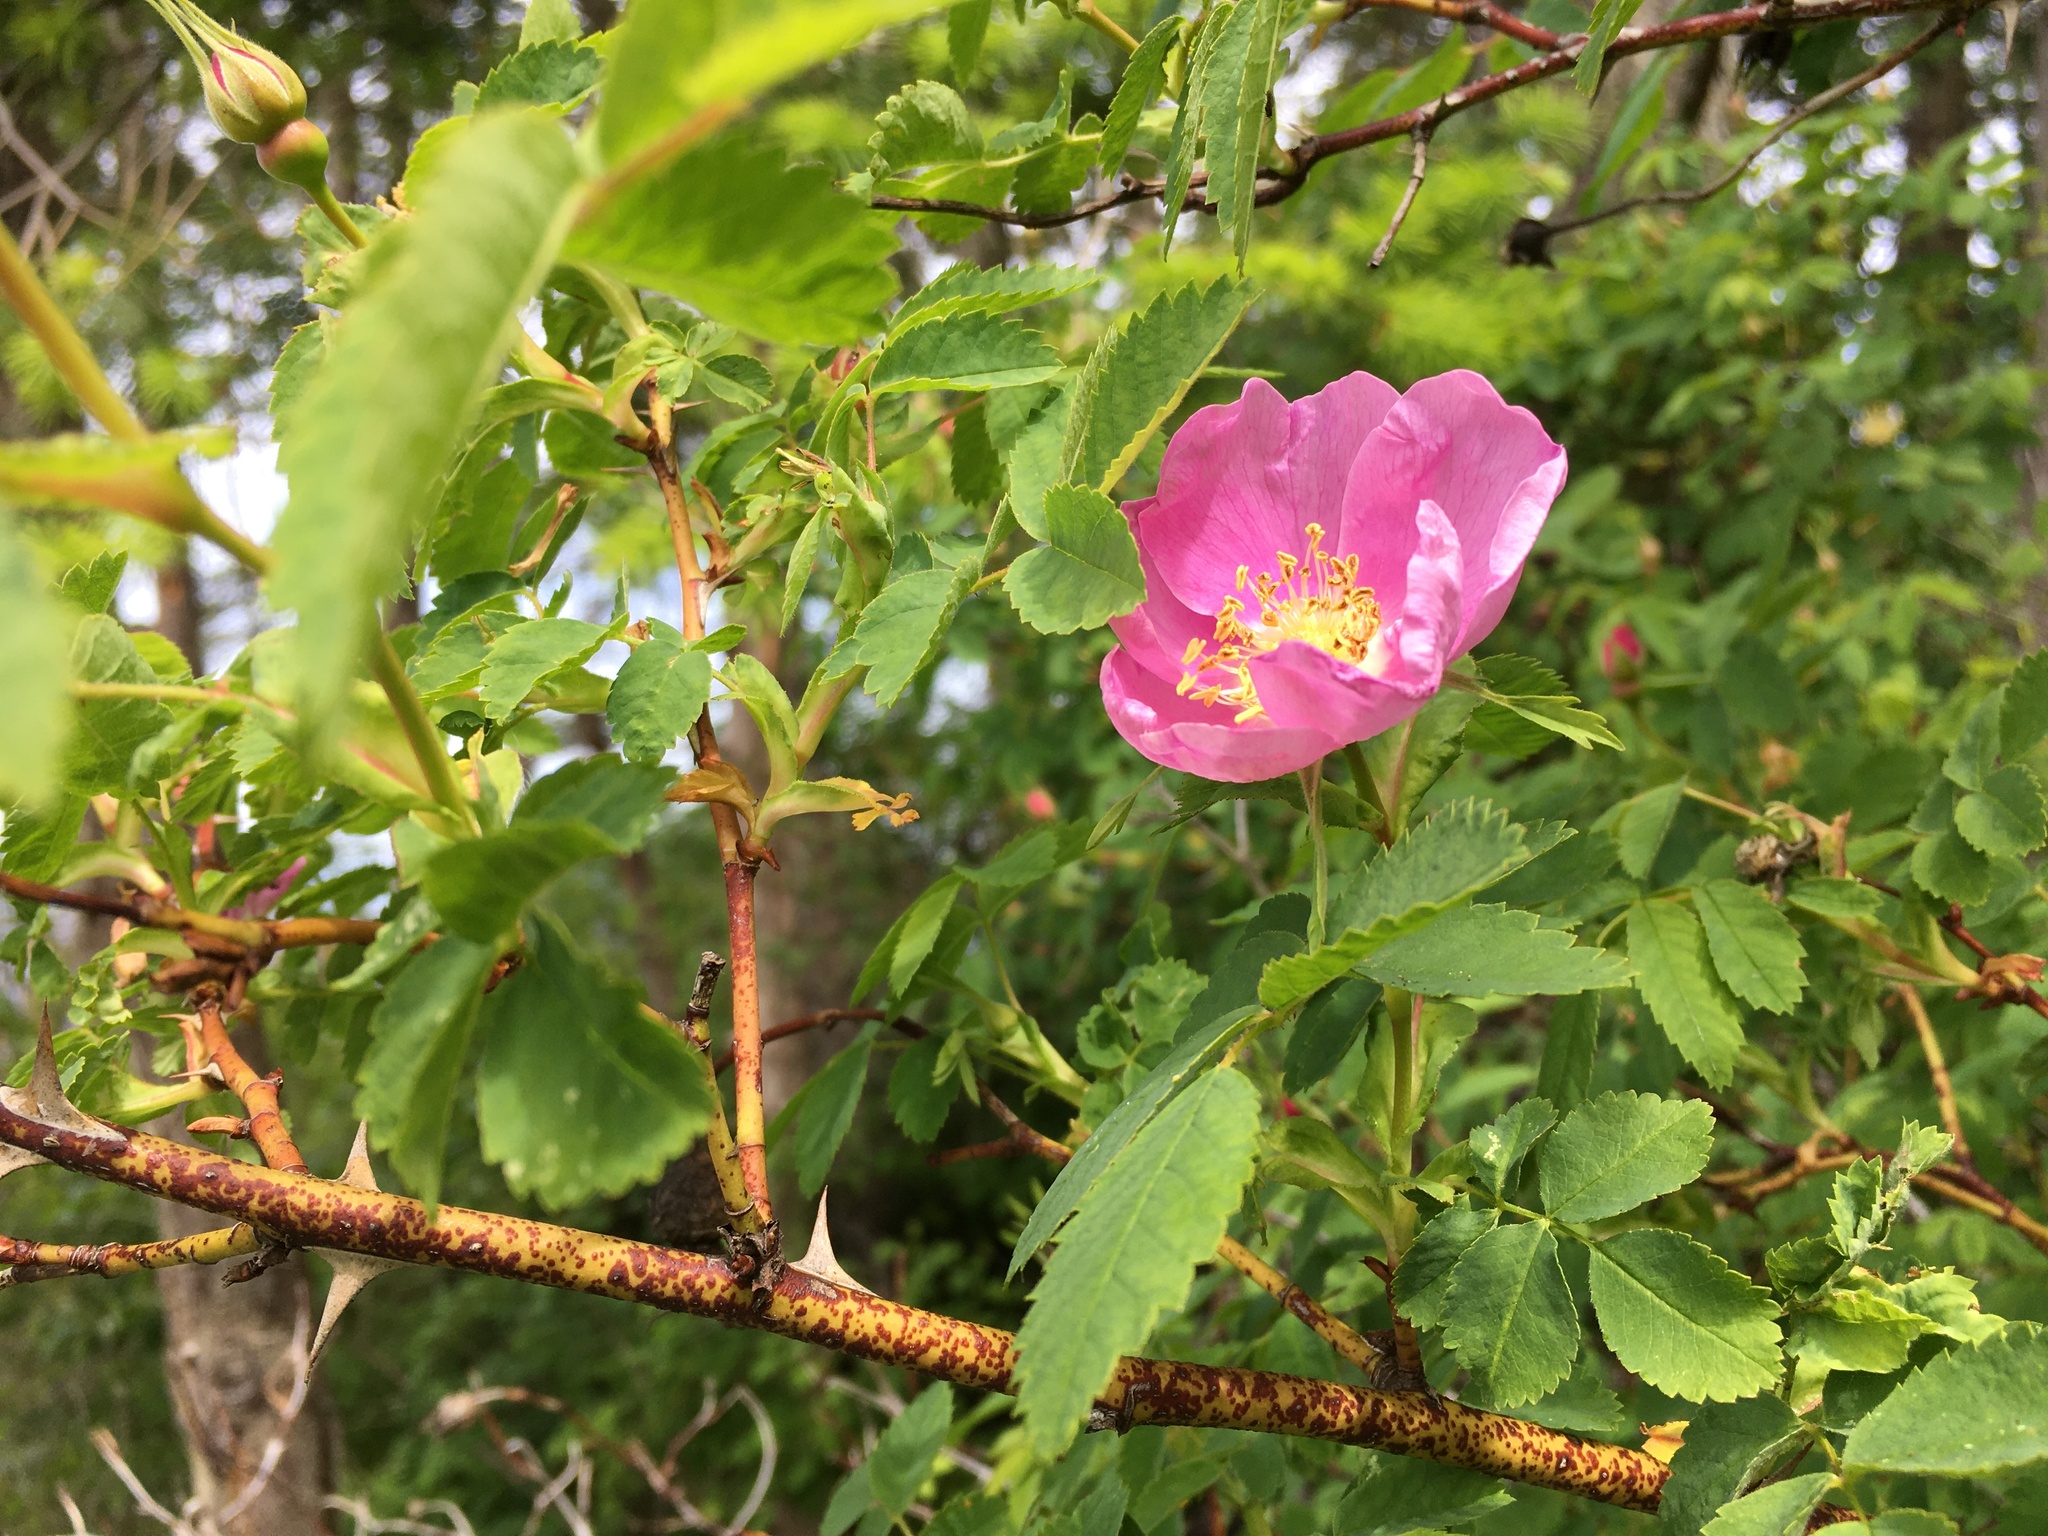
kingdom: Plantae
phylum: Tracheophyta
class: Magnoliopsida
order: Rosales
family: Rosaceae
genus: Rosa
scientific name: Rosa nutkana
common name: Nootka rose
